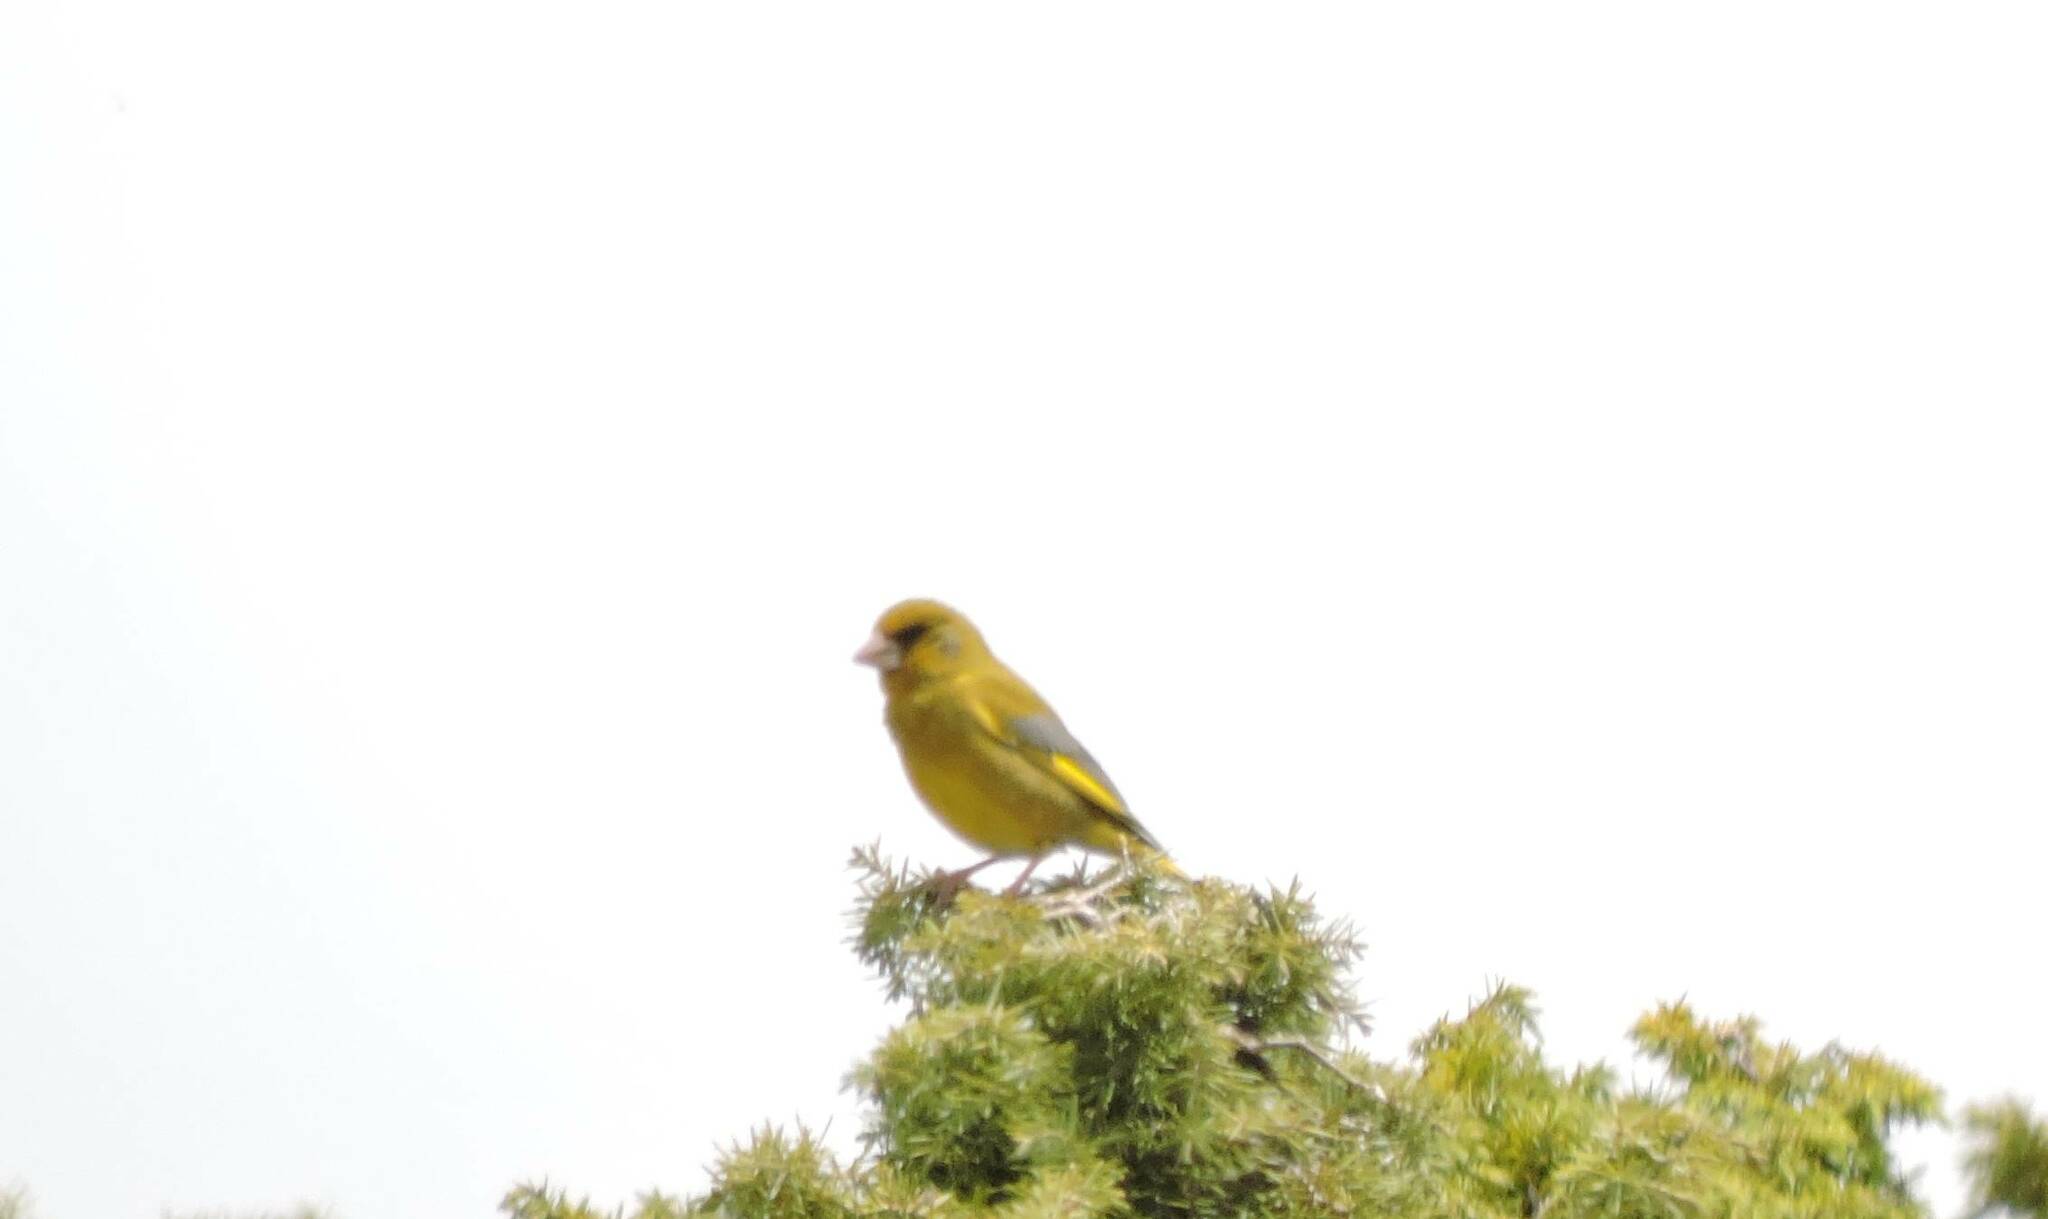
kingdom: Plantae
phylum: Tracheophyta
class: Liliopsida
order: Poales
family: Poaceae
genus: Chloris
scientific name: Chloris chloris
